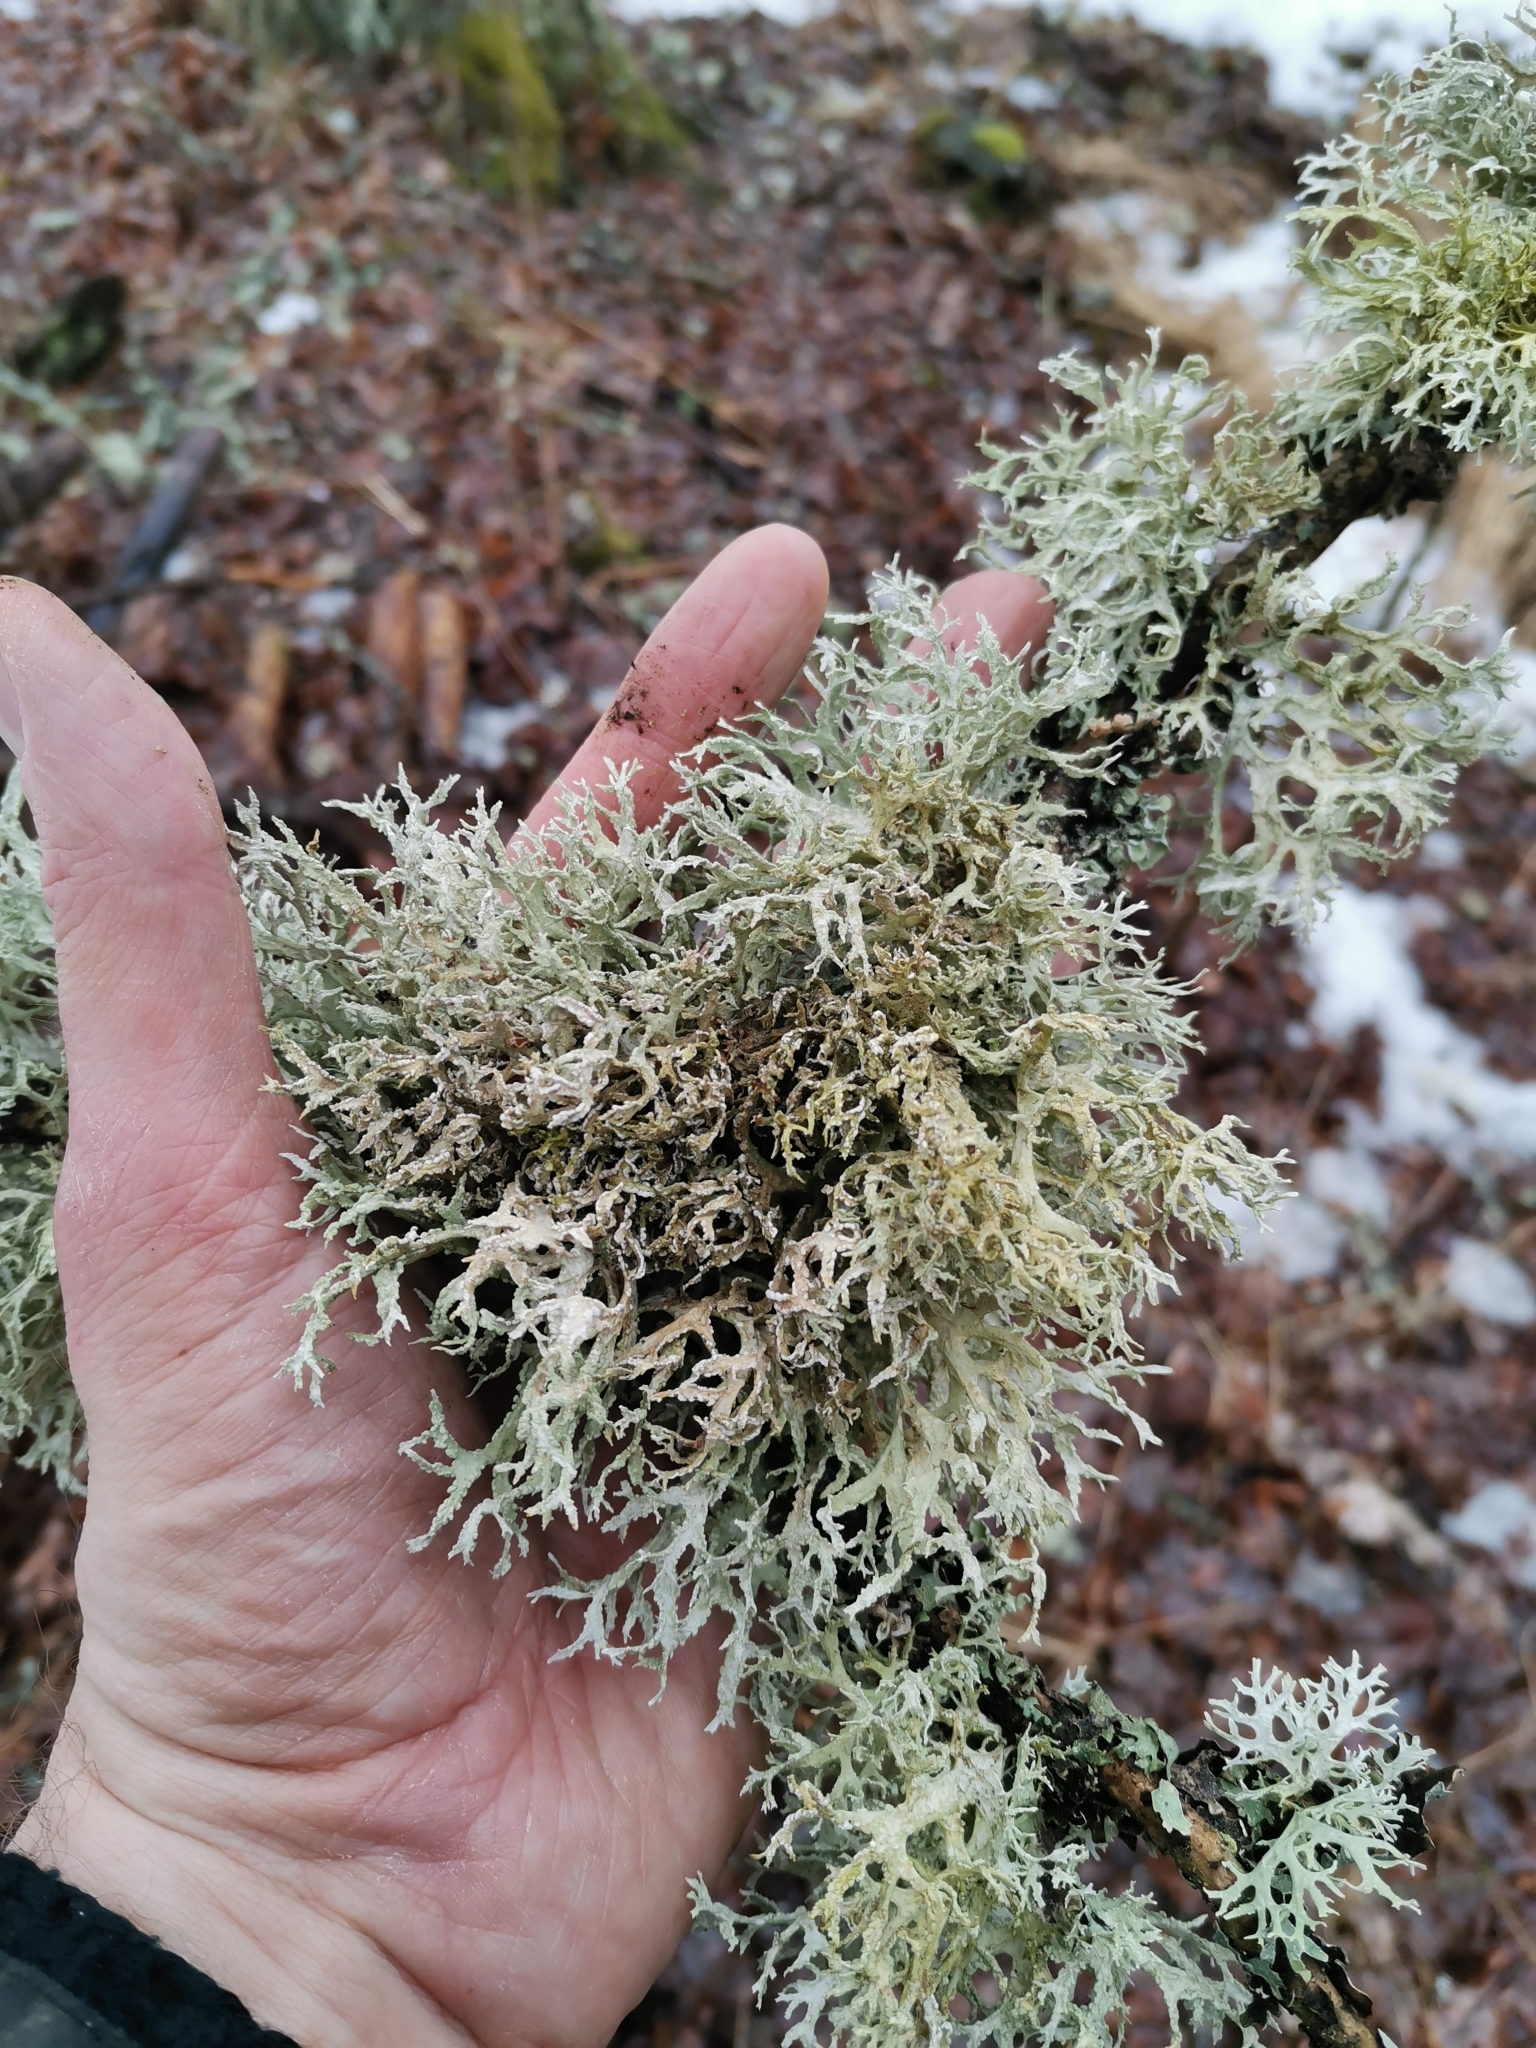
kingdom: Fungi
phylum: Ascomycota
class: Lecanoromycetes
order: Lecanorales
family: Parmeliaceae
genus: Evernia
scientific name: Evernia prunastri
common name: Oak moss
